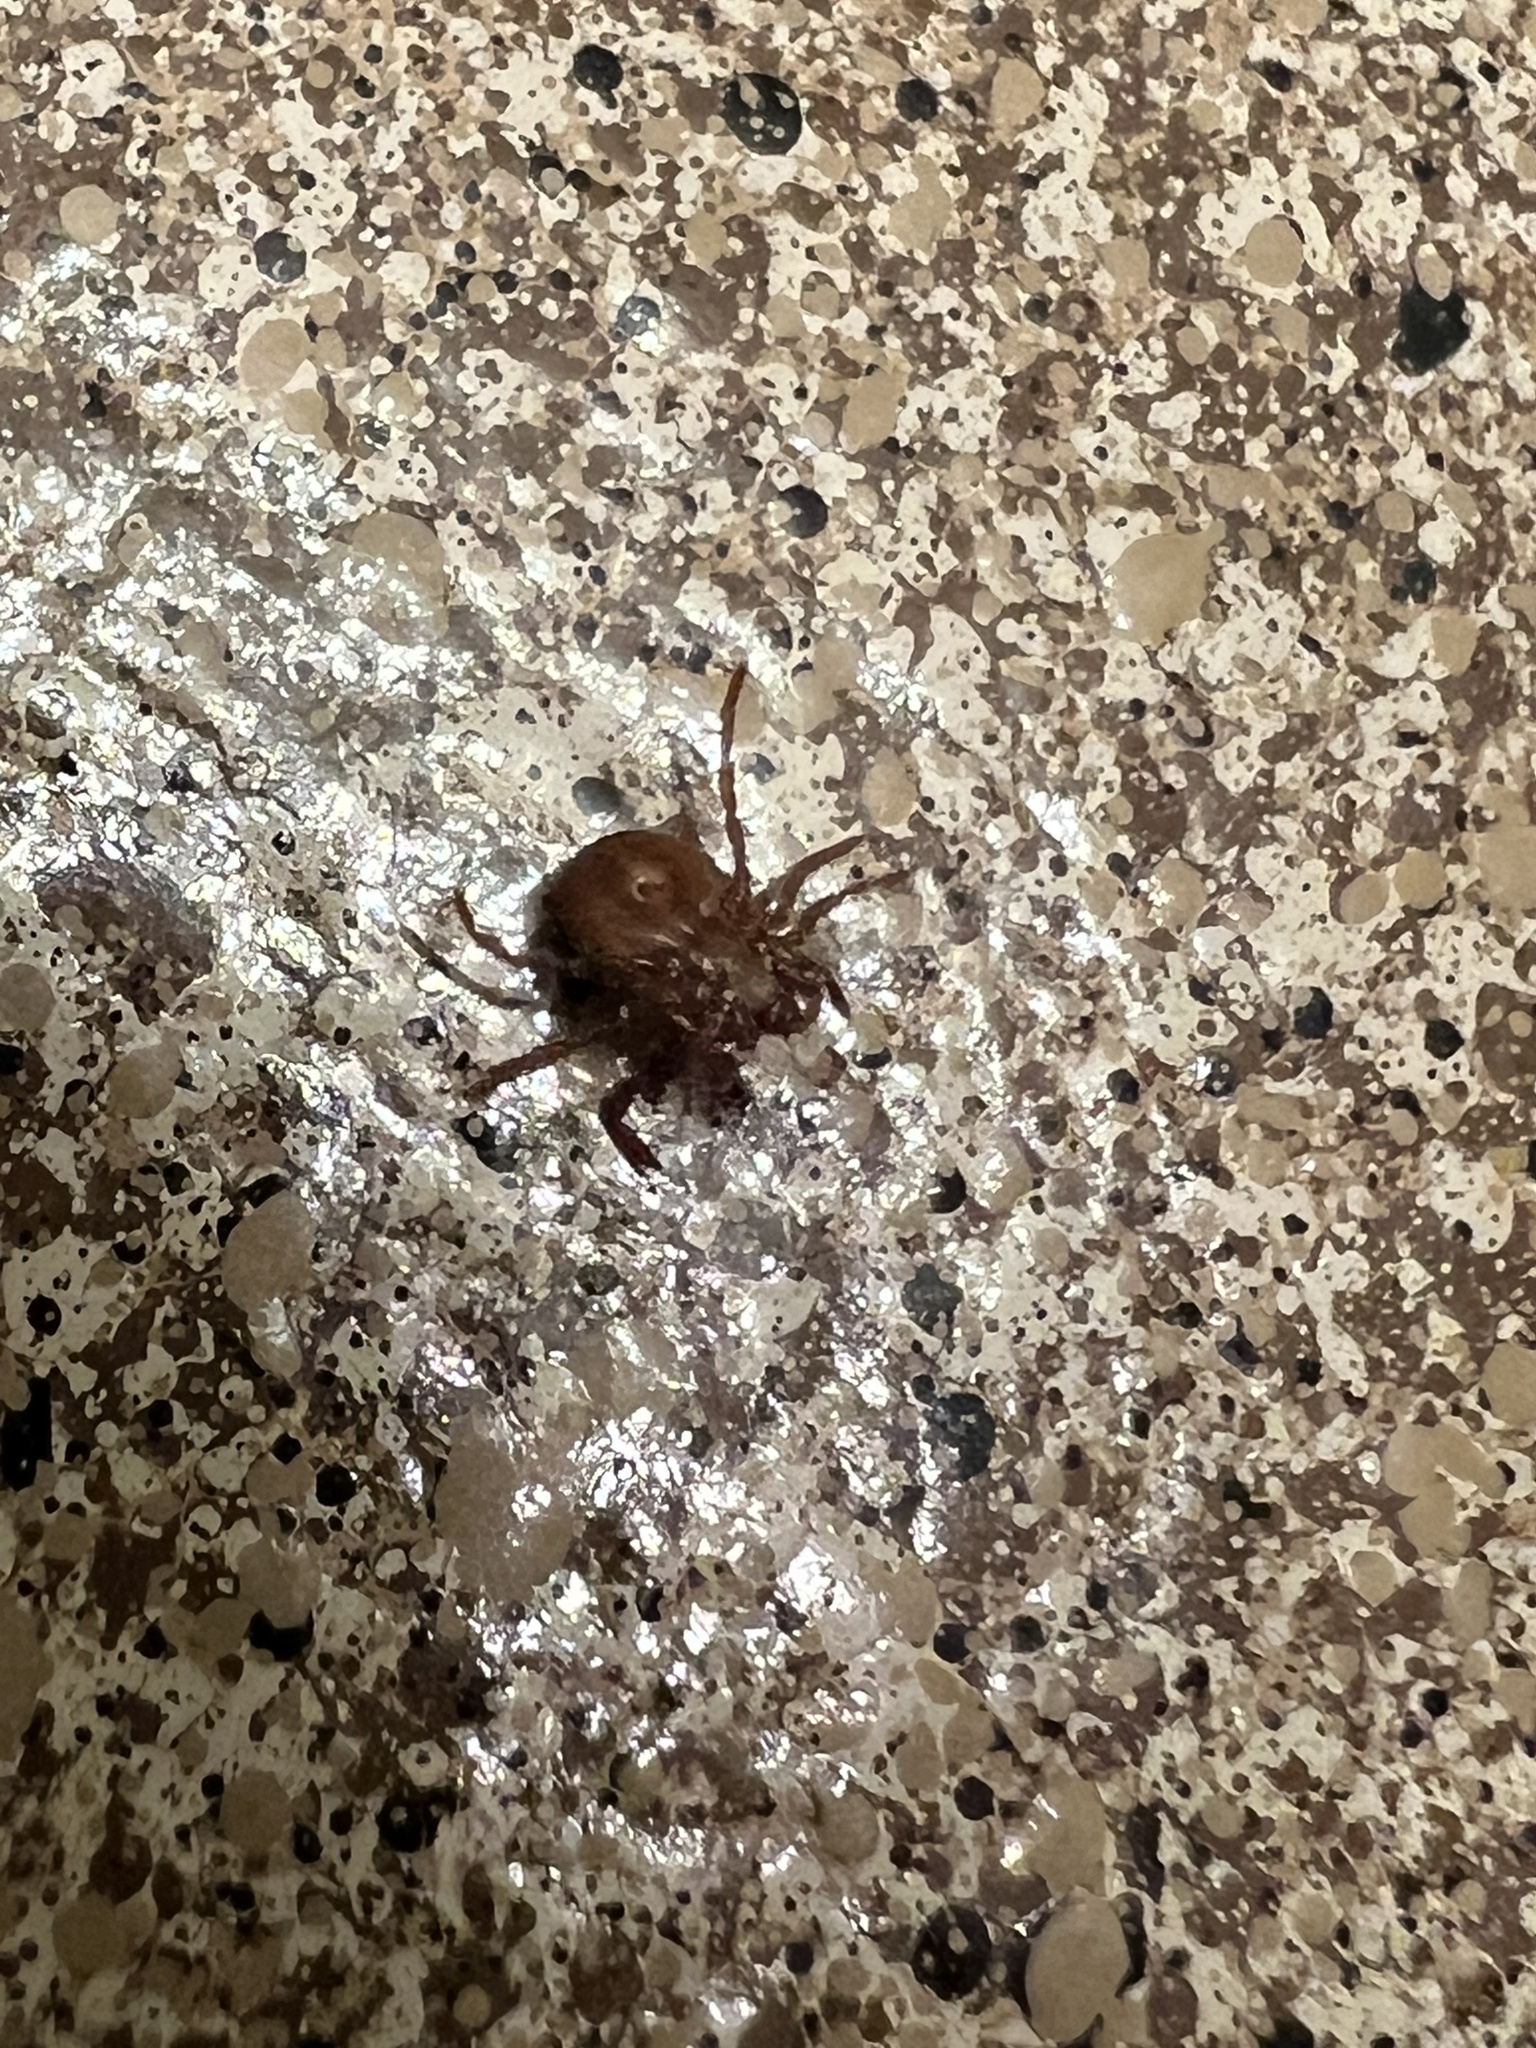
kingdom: Animalia
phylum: Arthropoda
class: Arachnida
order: Ixodida
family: Ixodidae
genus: Amblyomma
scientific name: Amblyomma americanum
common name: Lone star tick
